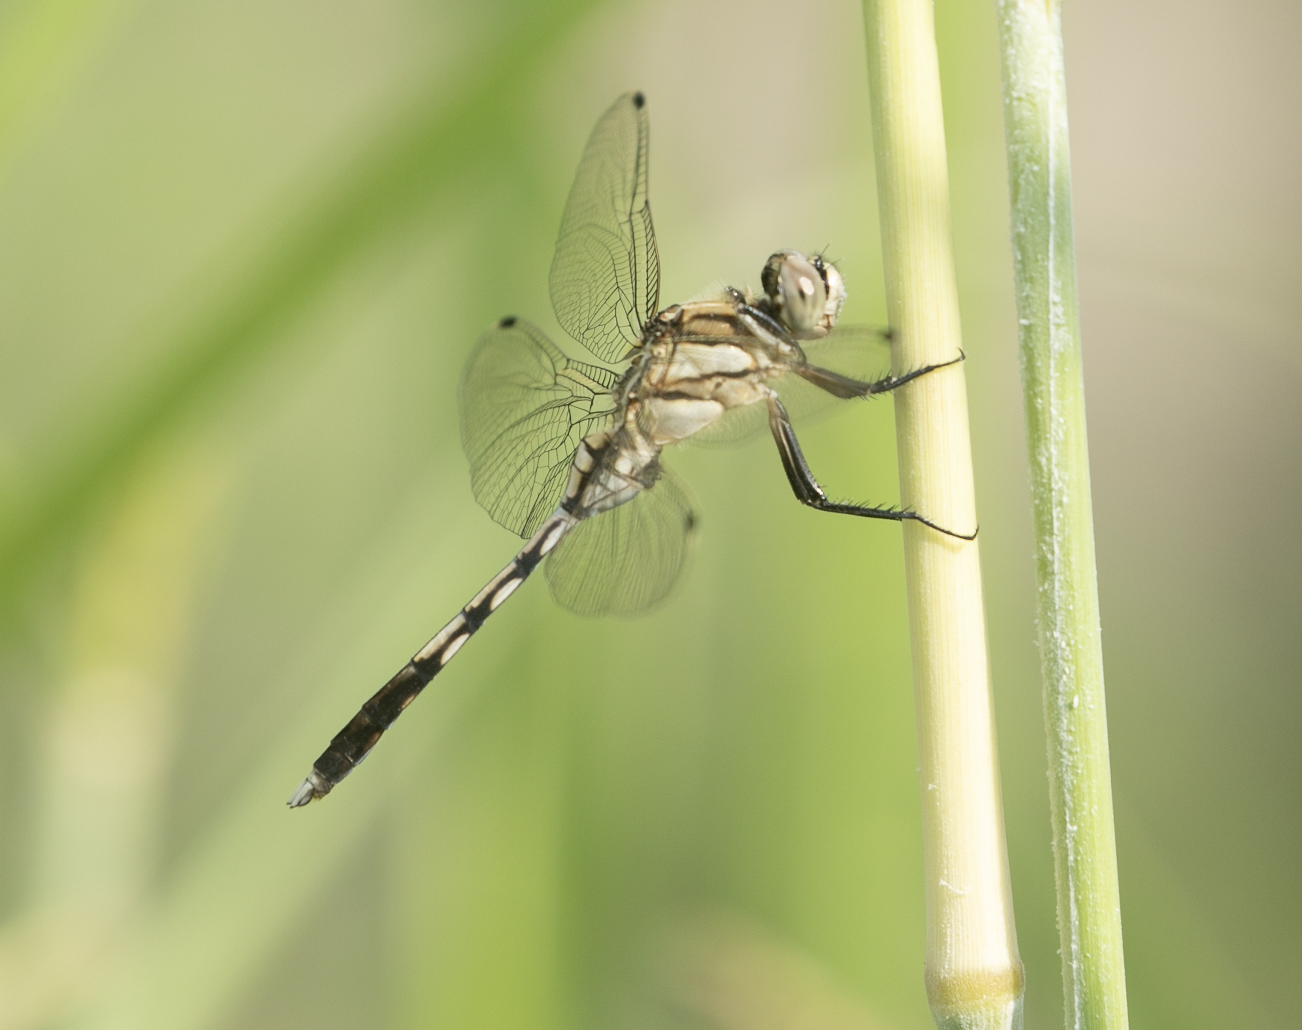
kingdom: Animalia
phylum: Arthropoda
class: Insecta
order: Odonata
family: Libellulidae
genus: Orthetrum
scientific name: Orthetrum albistylum
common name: White-tailed skimmer
